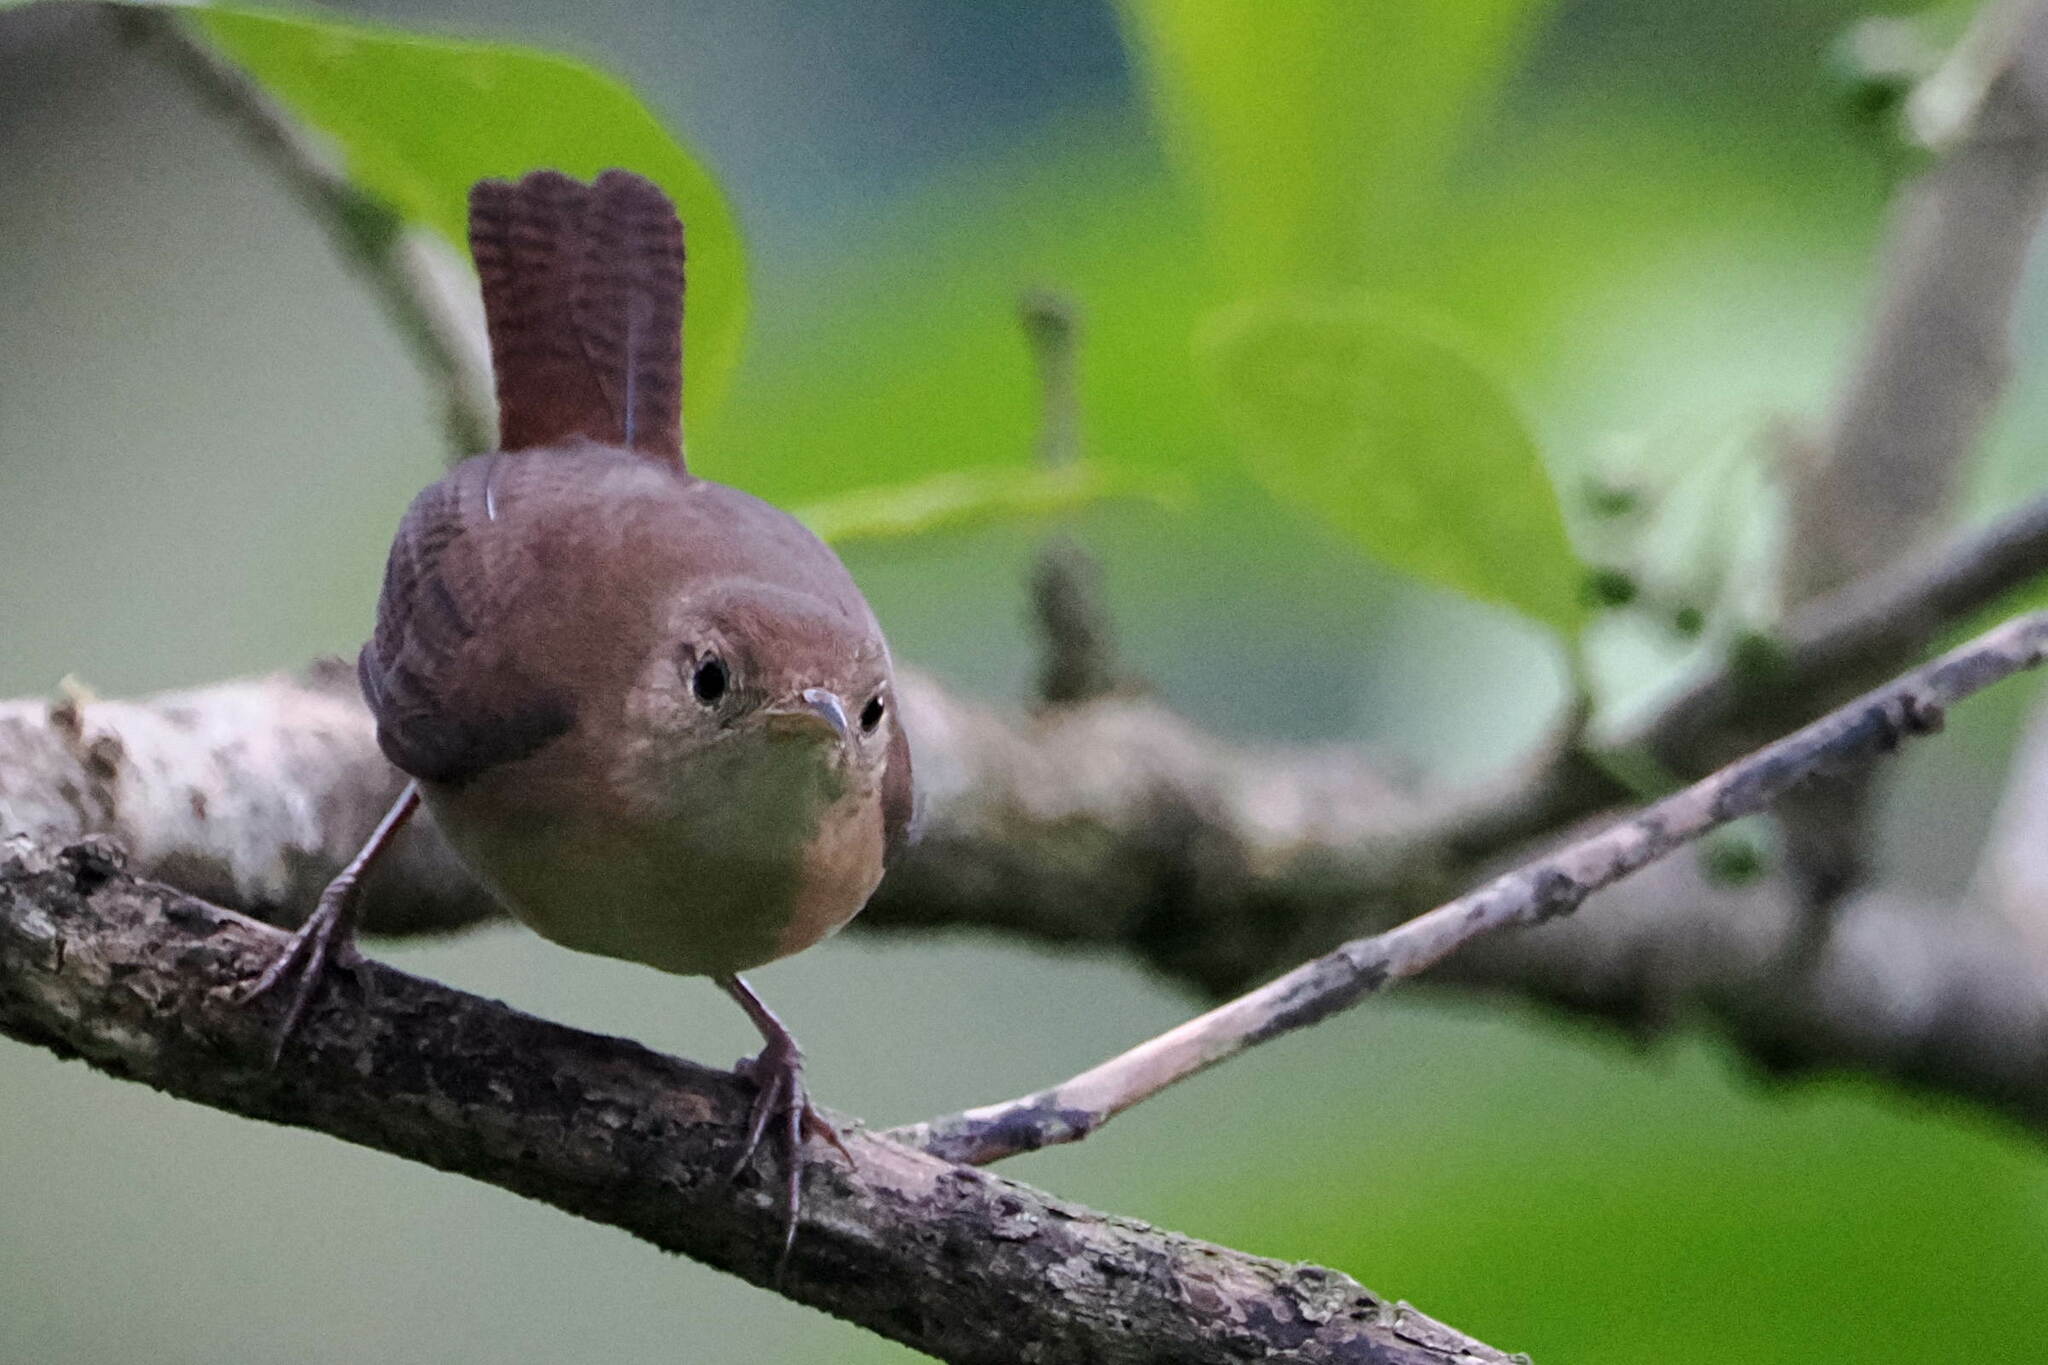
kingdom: Animalia
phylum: Chordata
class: Aves
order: Passeriformes
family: Troglodytidae
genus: Troglodytes
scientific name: Troglodytes aedon
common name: House wren
